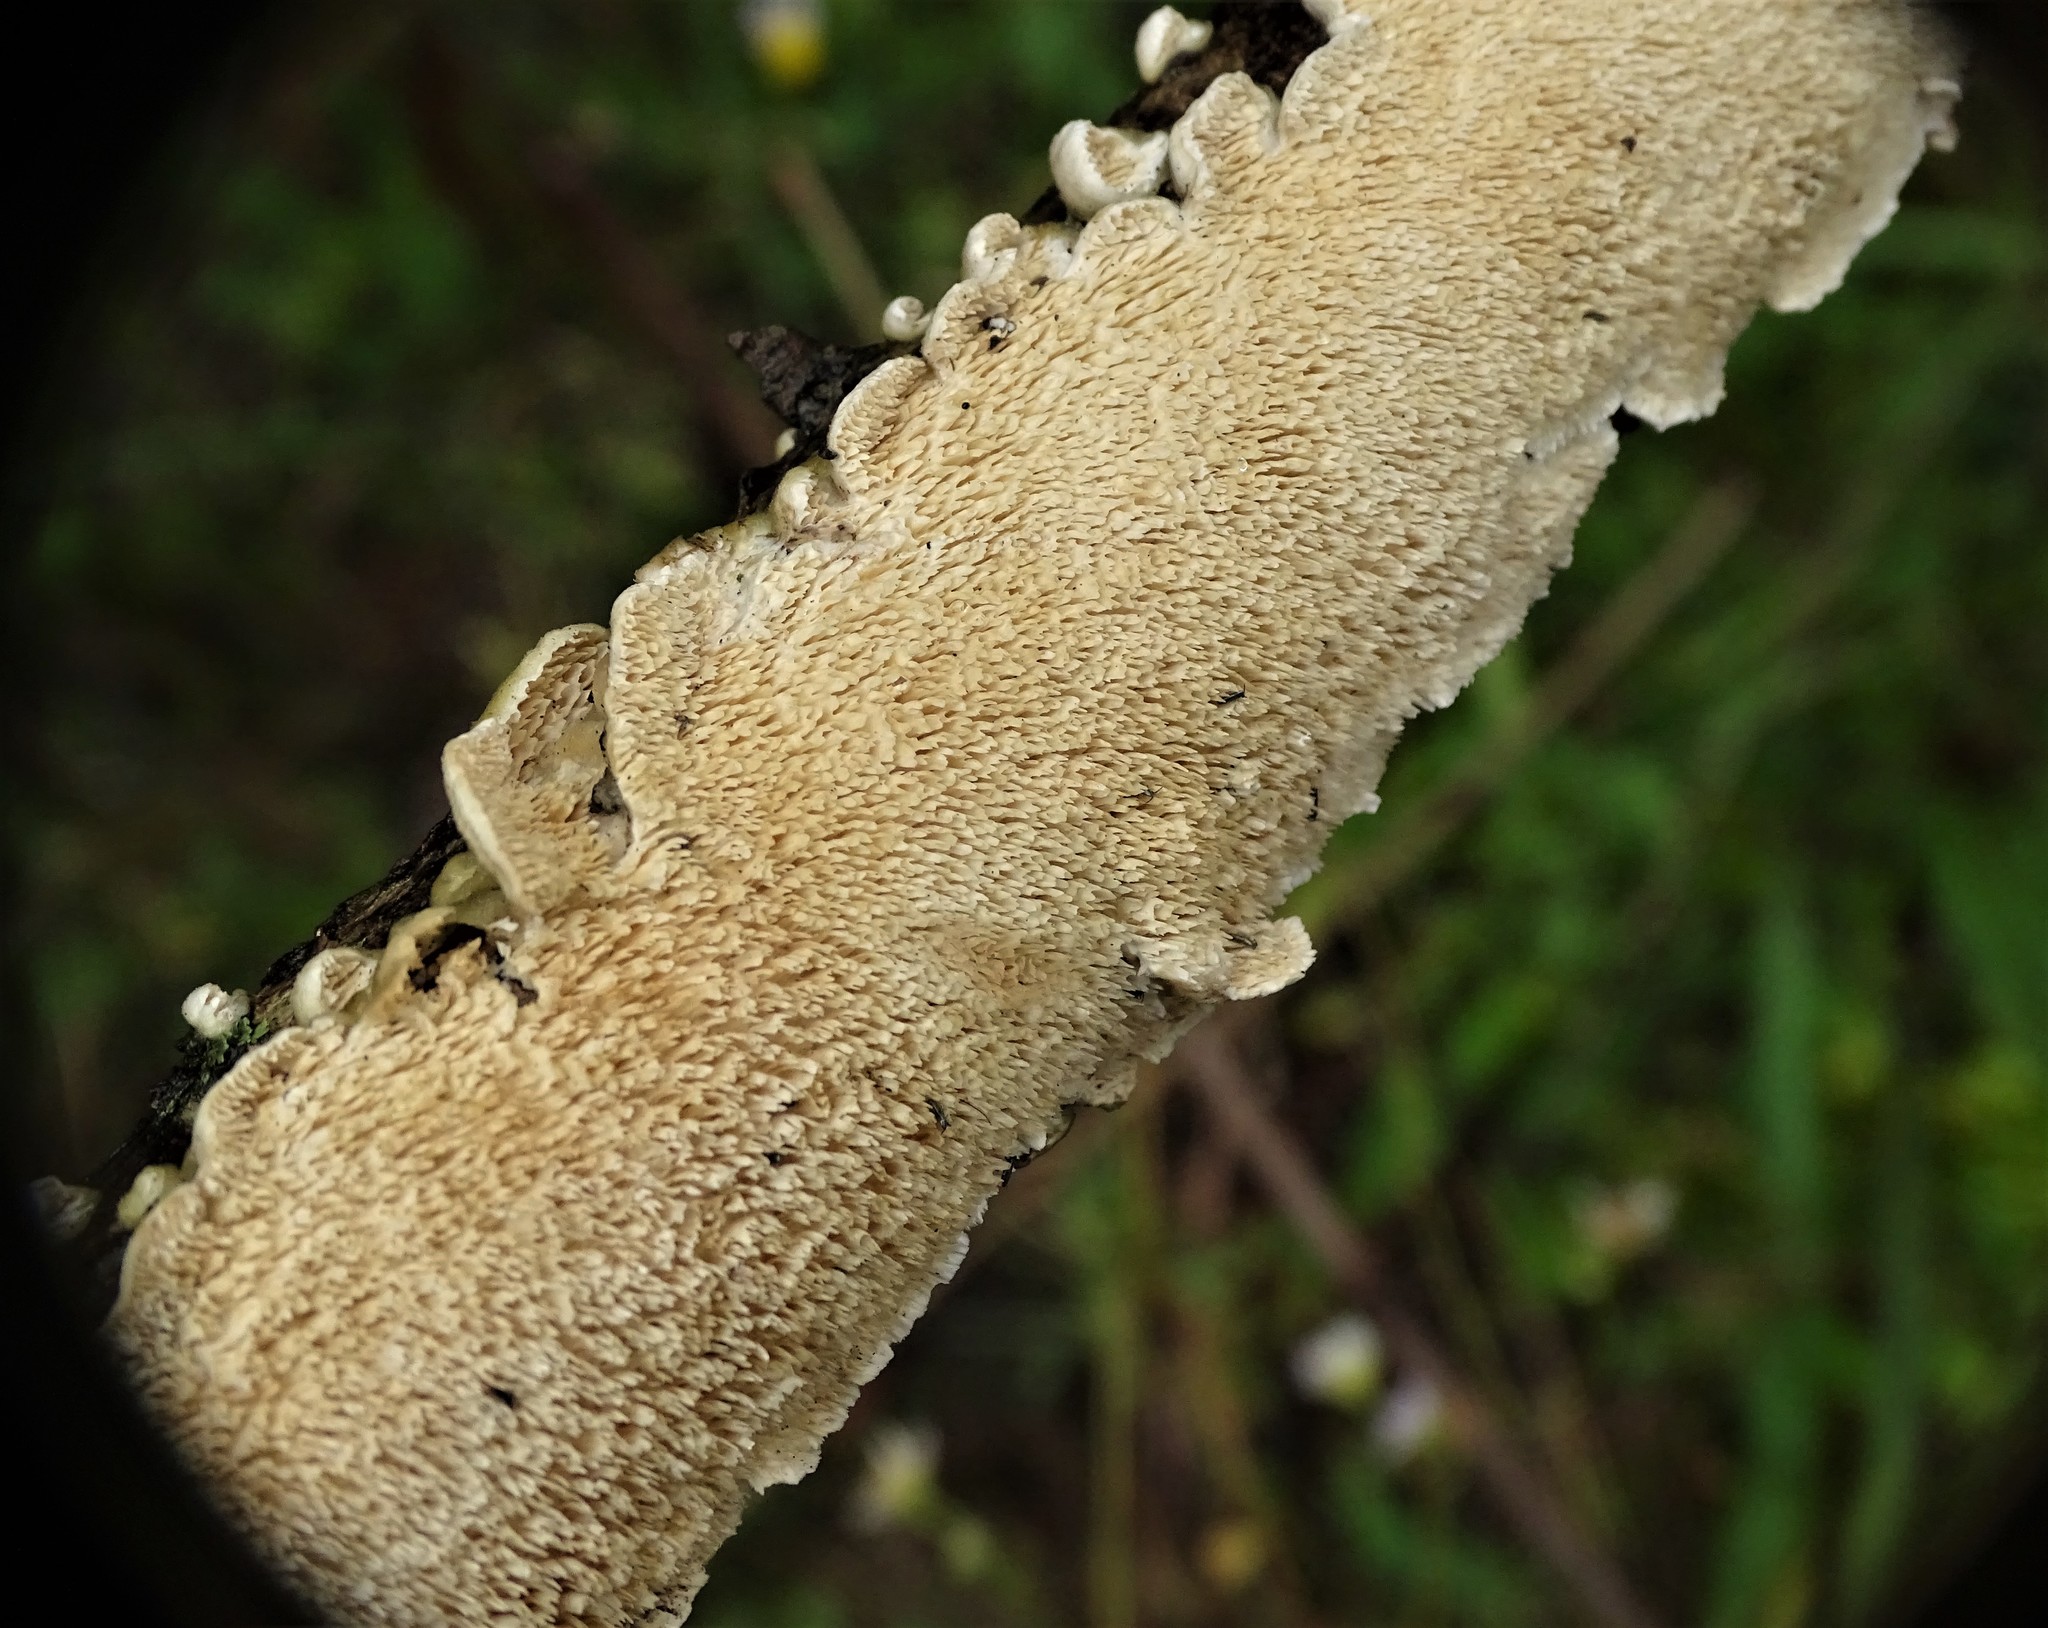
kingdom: Fungi
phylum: Basidiomycota
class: Agaricomycetes
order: Polyporales
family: Irpicaceae
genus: Irpex
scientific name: Irpex lacteus
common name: Milk-white toothed polypore
